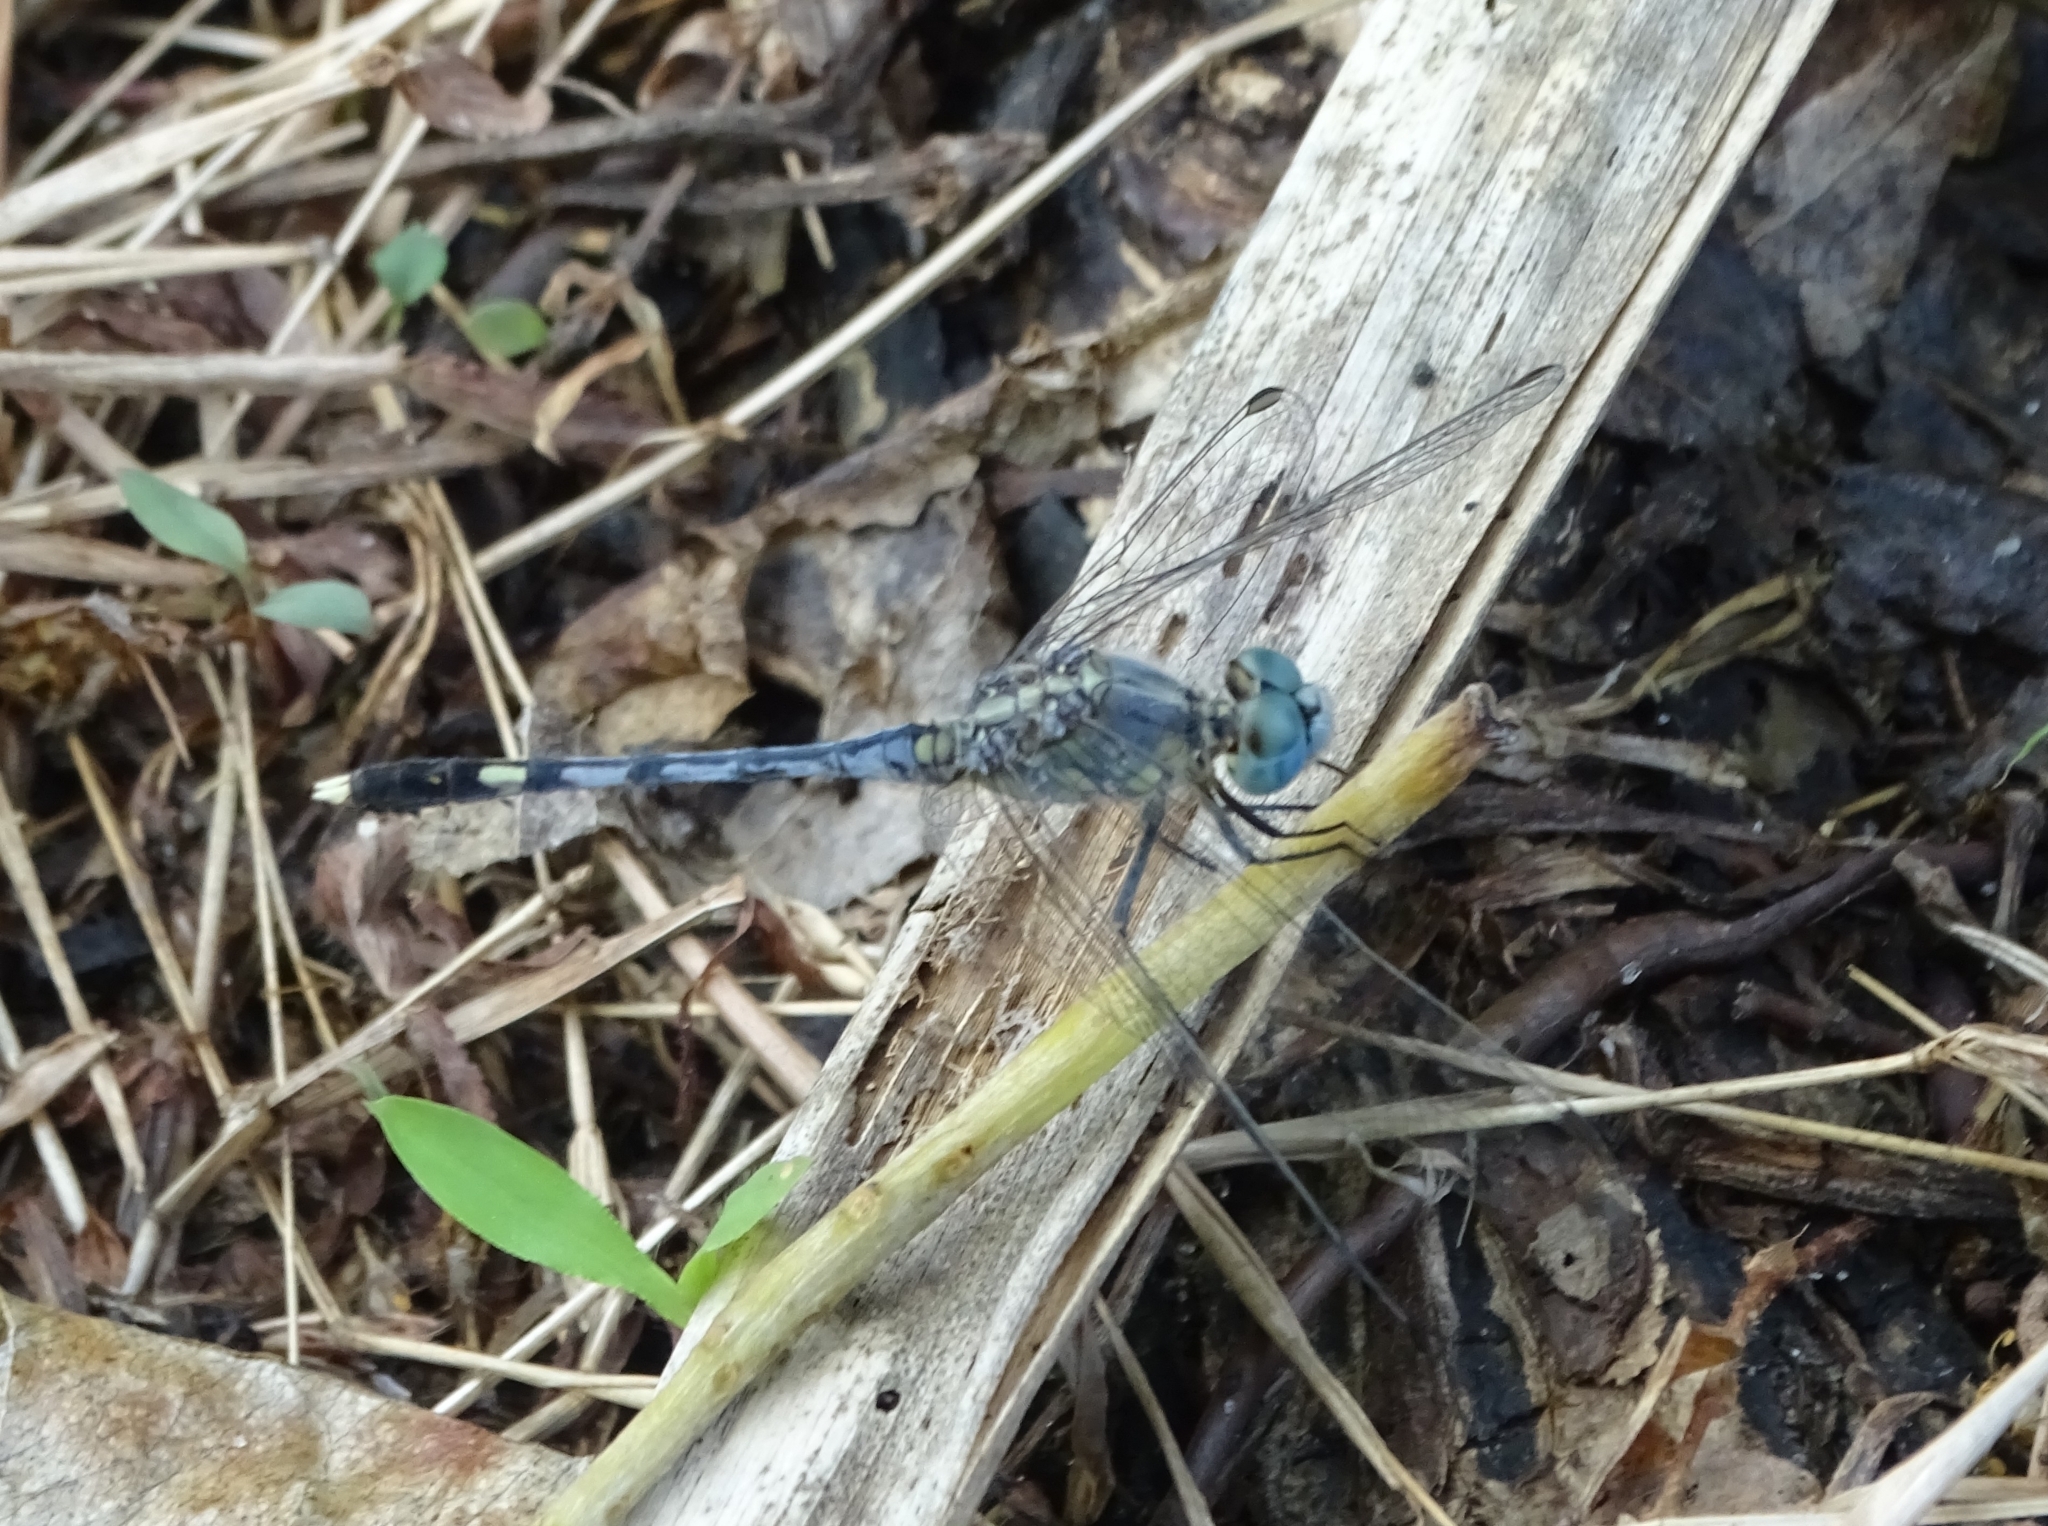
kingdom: Animalia
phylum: Arthropoda
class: Insecta
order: Odonata
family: Libellulidae
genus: Diplacodes
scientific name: Diplacodes trivialis
